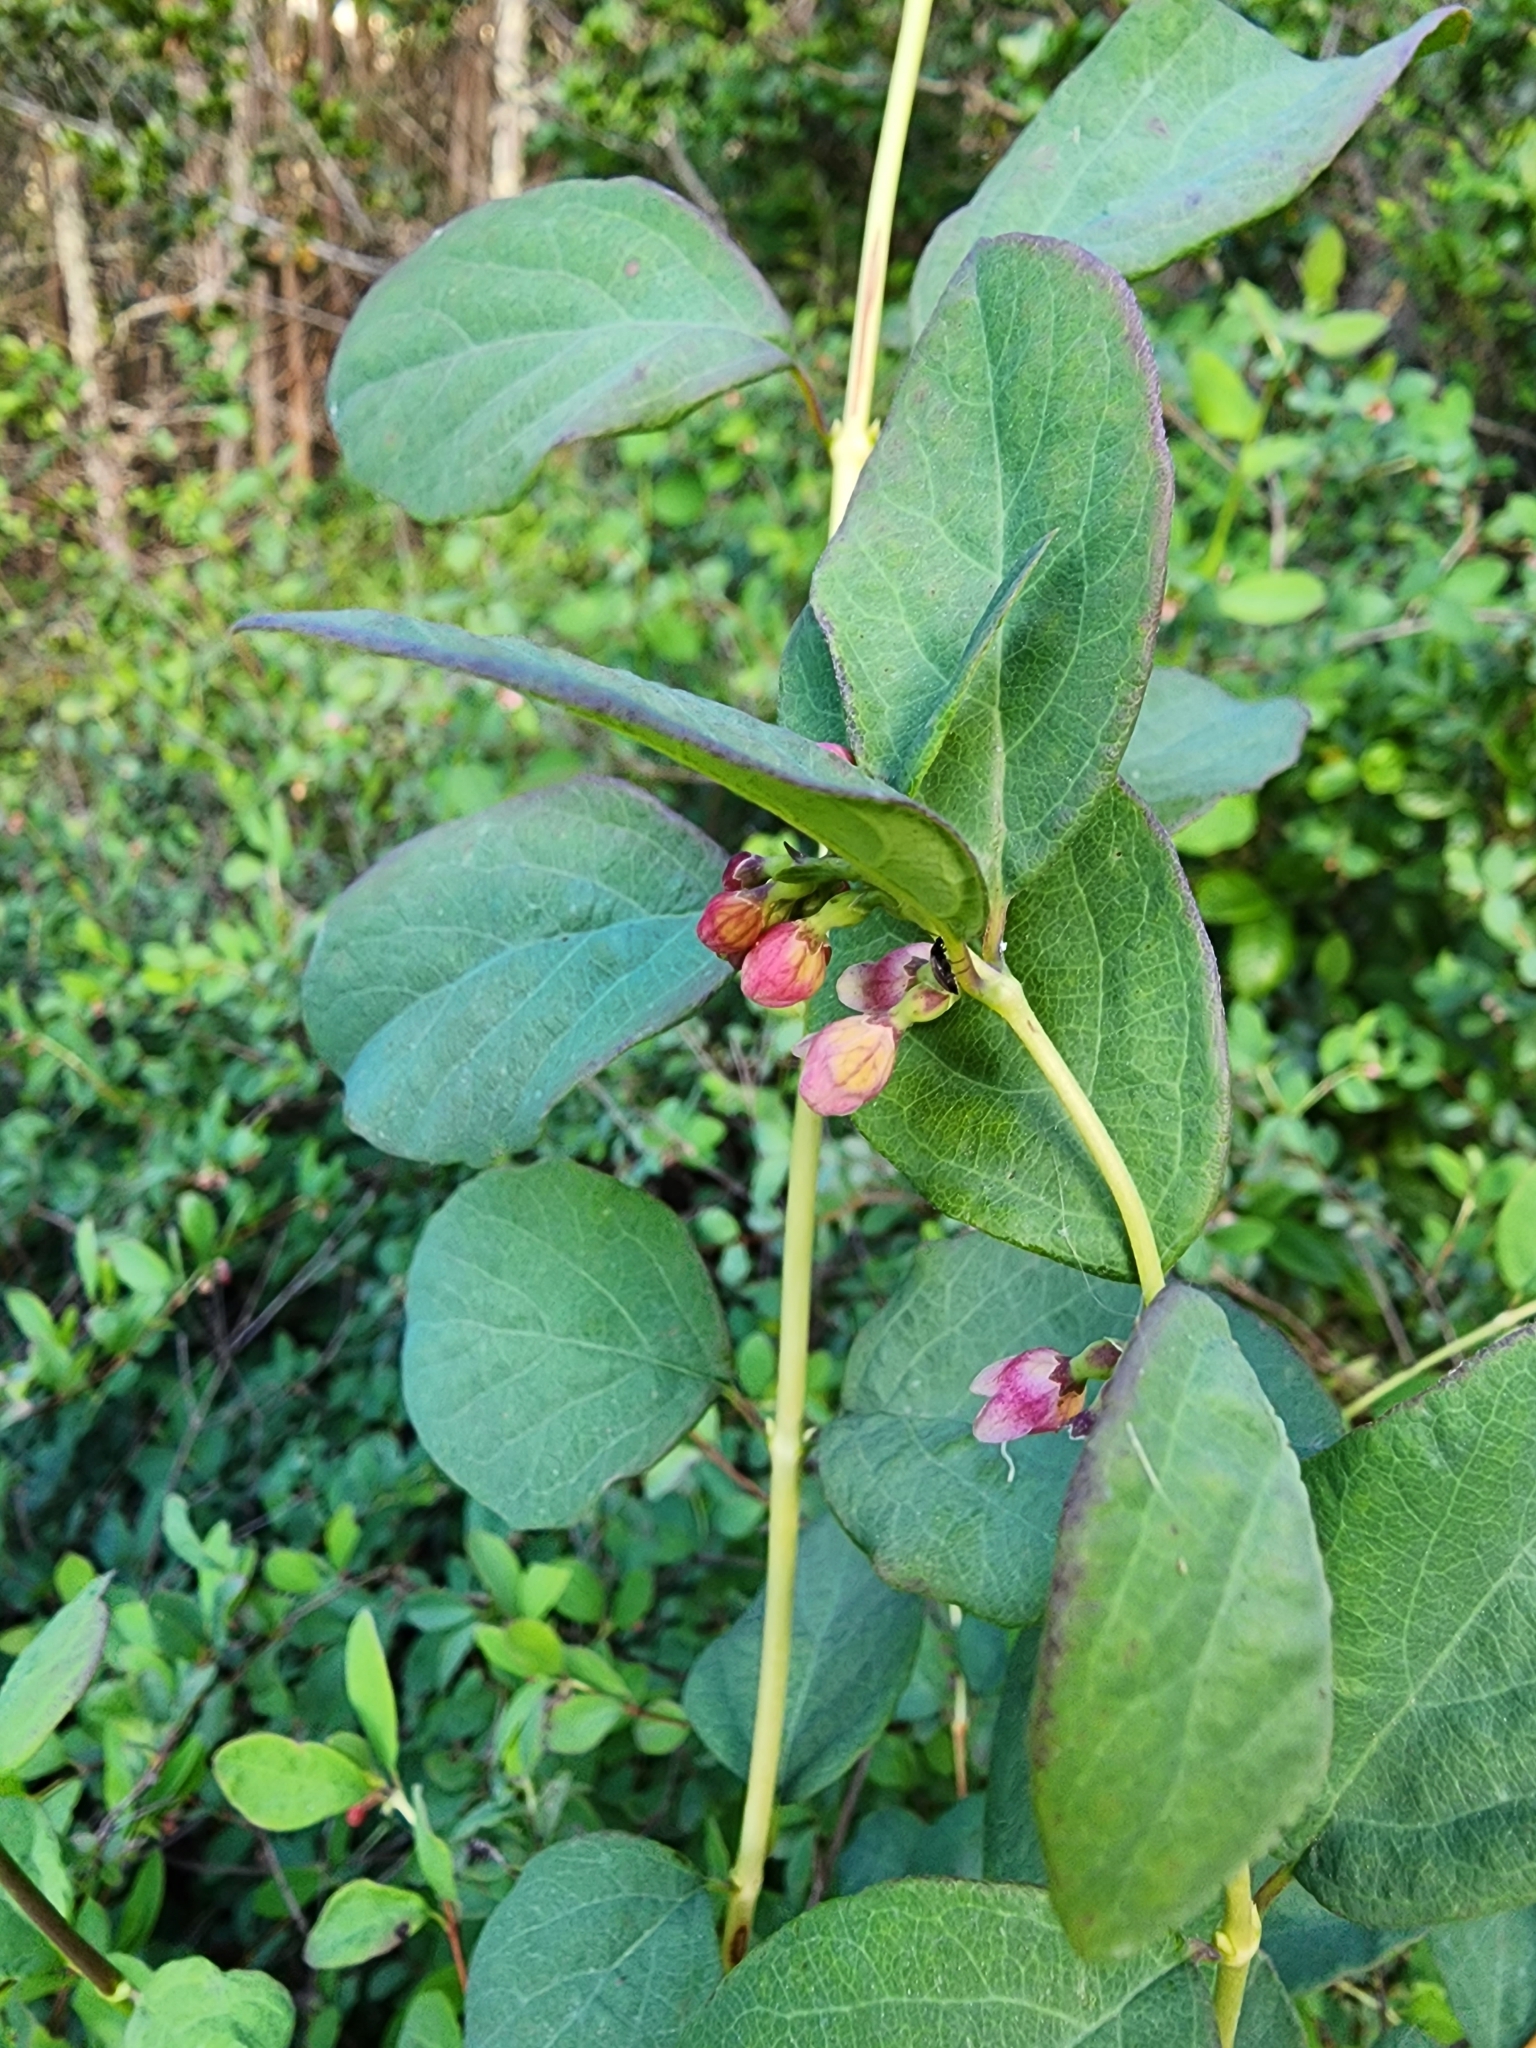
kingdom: Plantae
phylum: Tracheophyta
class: Magnoliopsida
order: Dipsacales
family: Caprifoliaceae
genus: Symphoricarpos
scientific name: Symphoricarpos albus
